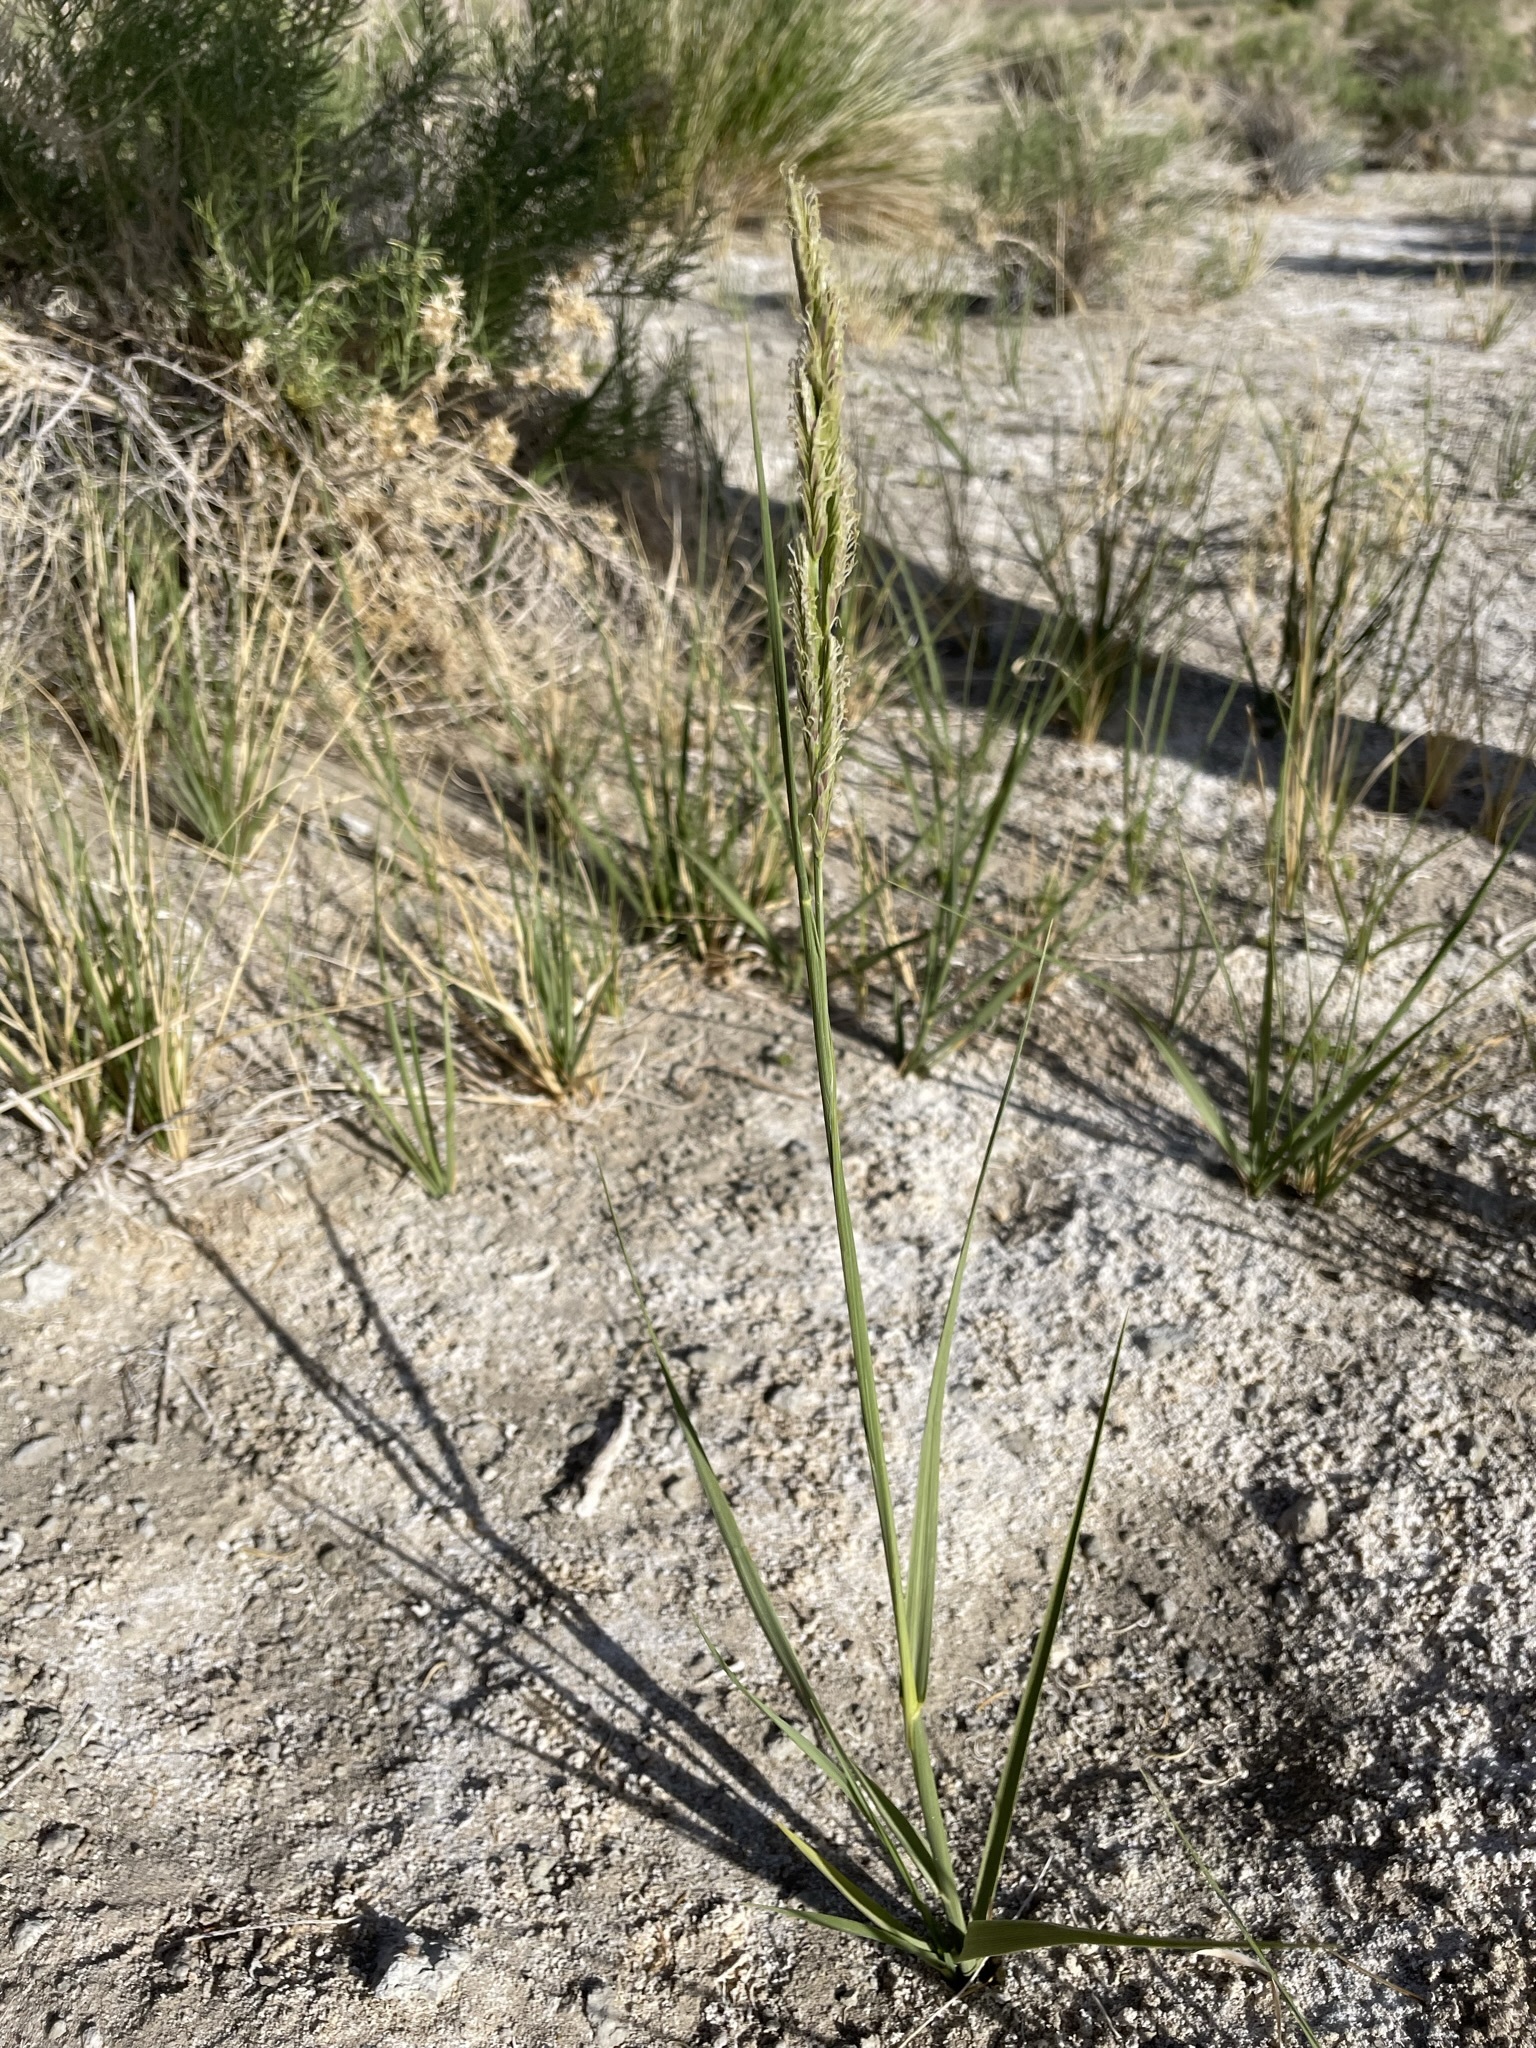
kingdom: Plantae
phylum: Tracheophyta
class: Liliopsida
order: Poales
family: Poaceae
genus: Sporobolus
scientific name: Sporobolus hookerianus
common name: Alkali cordgrass
